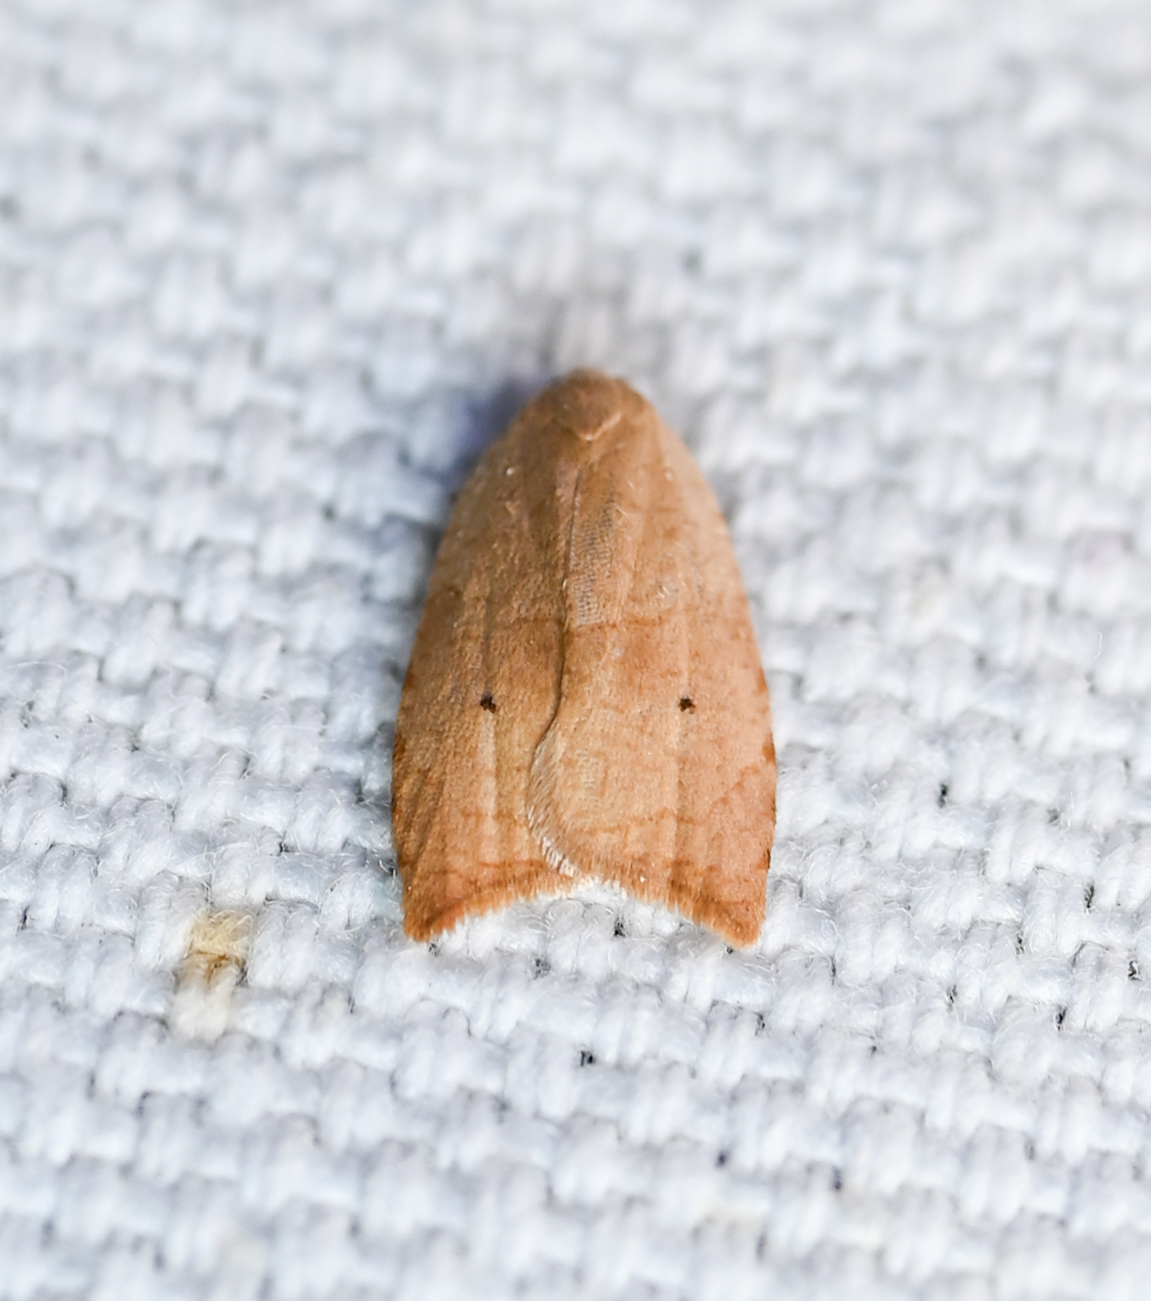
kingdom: Animalia
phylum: Arthropoda
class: Insecta
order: Lepidoptera
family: Tortricidae
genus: Coelostathma
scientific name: Coelostathma discopunctana
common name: Batman moth
